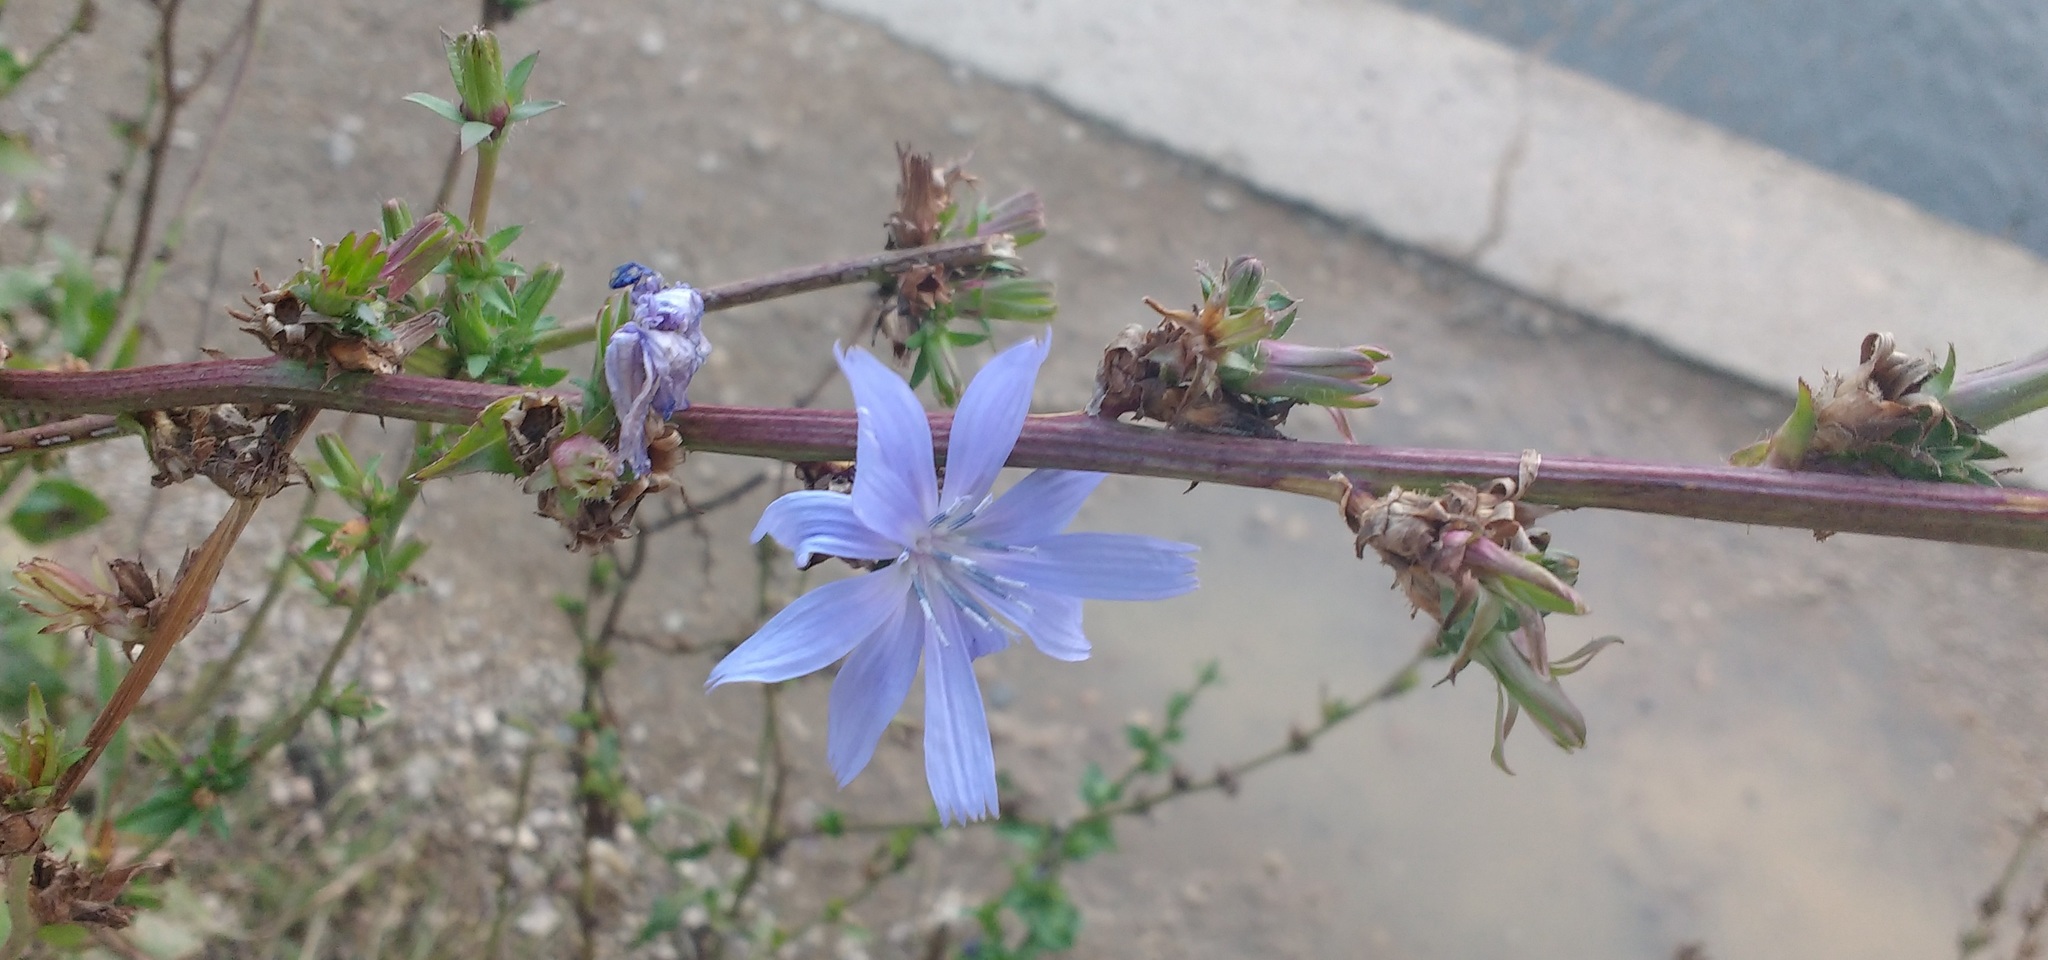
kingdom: Plantae
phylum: Tracheophyta
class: Magnoliopsida
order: Asterales
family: Asteraceae
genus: Cichorium
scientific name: Cichorium intybus
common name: Chicory
